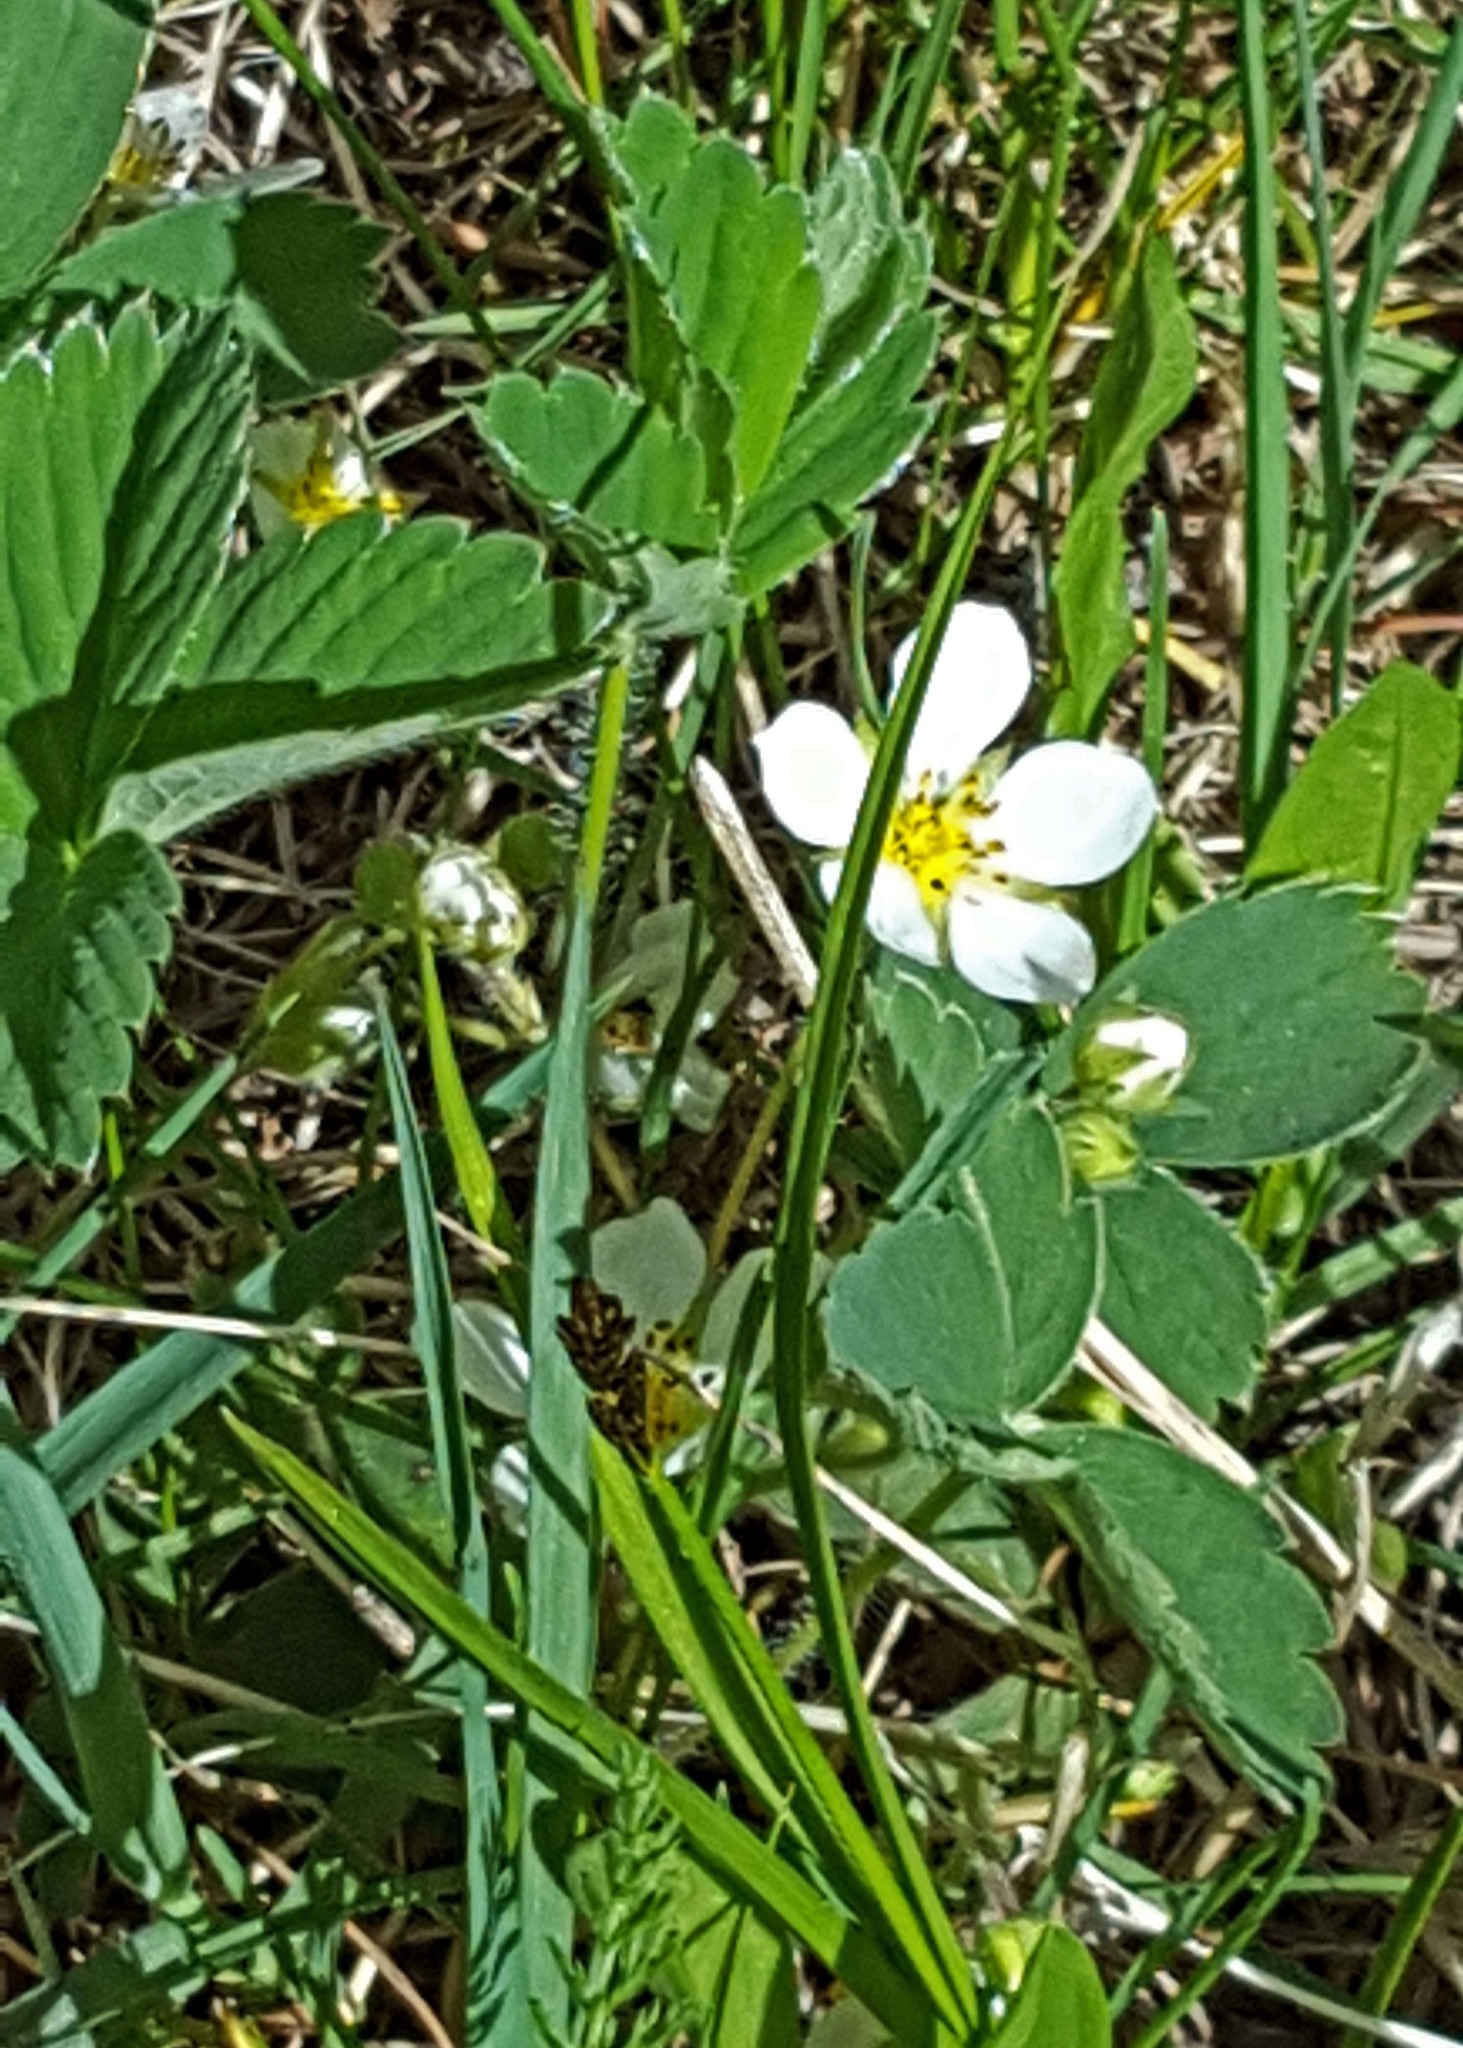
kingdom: Plantae
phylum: Tracheophyta
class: Magnoliopsida
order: Rosales
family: Rosaceae
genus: Fragaria
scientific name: Fragaria virginiana
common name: Thickleaved wild strawberry
